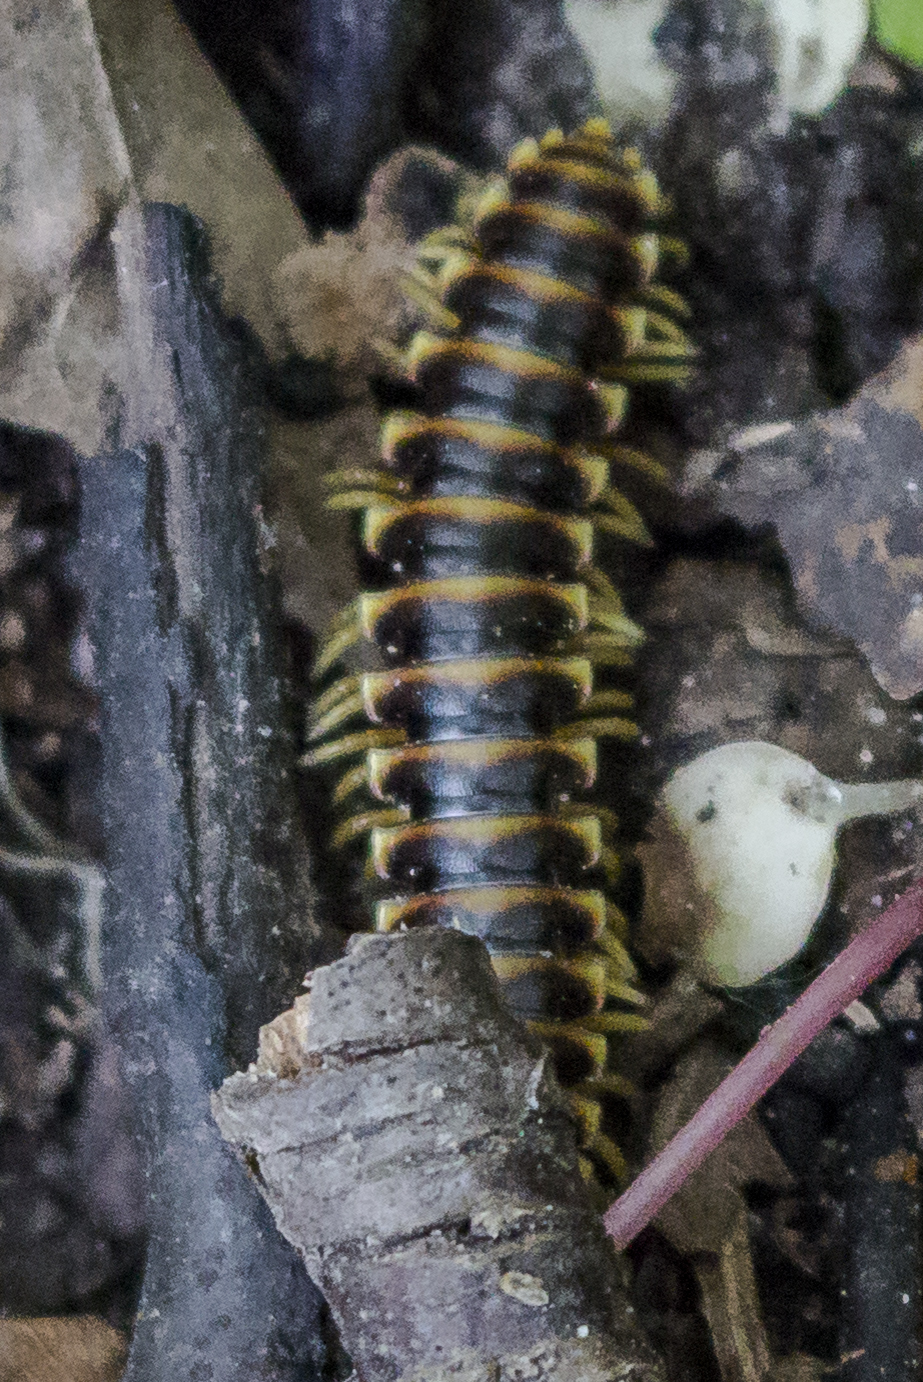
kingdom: Animalia
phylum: Arthropoda
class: Diplopoda
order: Polydesmida
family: Xystodesmidae
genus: Pleuroloma
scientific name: Pleuroloma flavipes
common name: Yellow-legged pleuroloma
